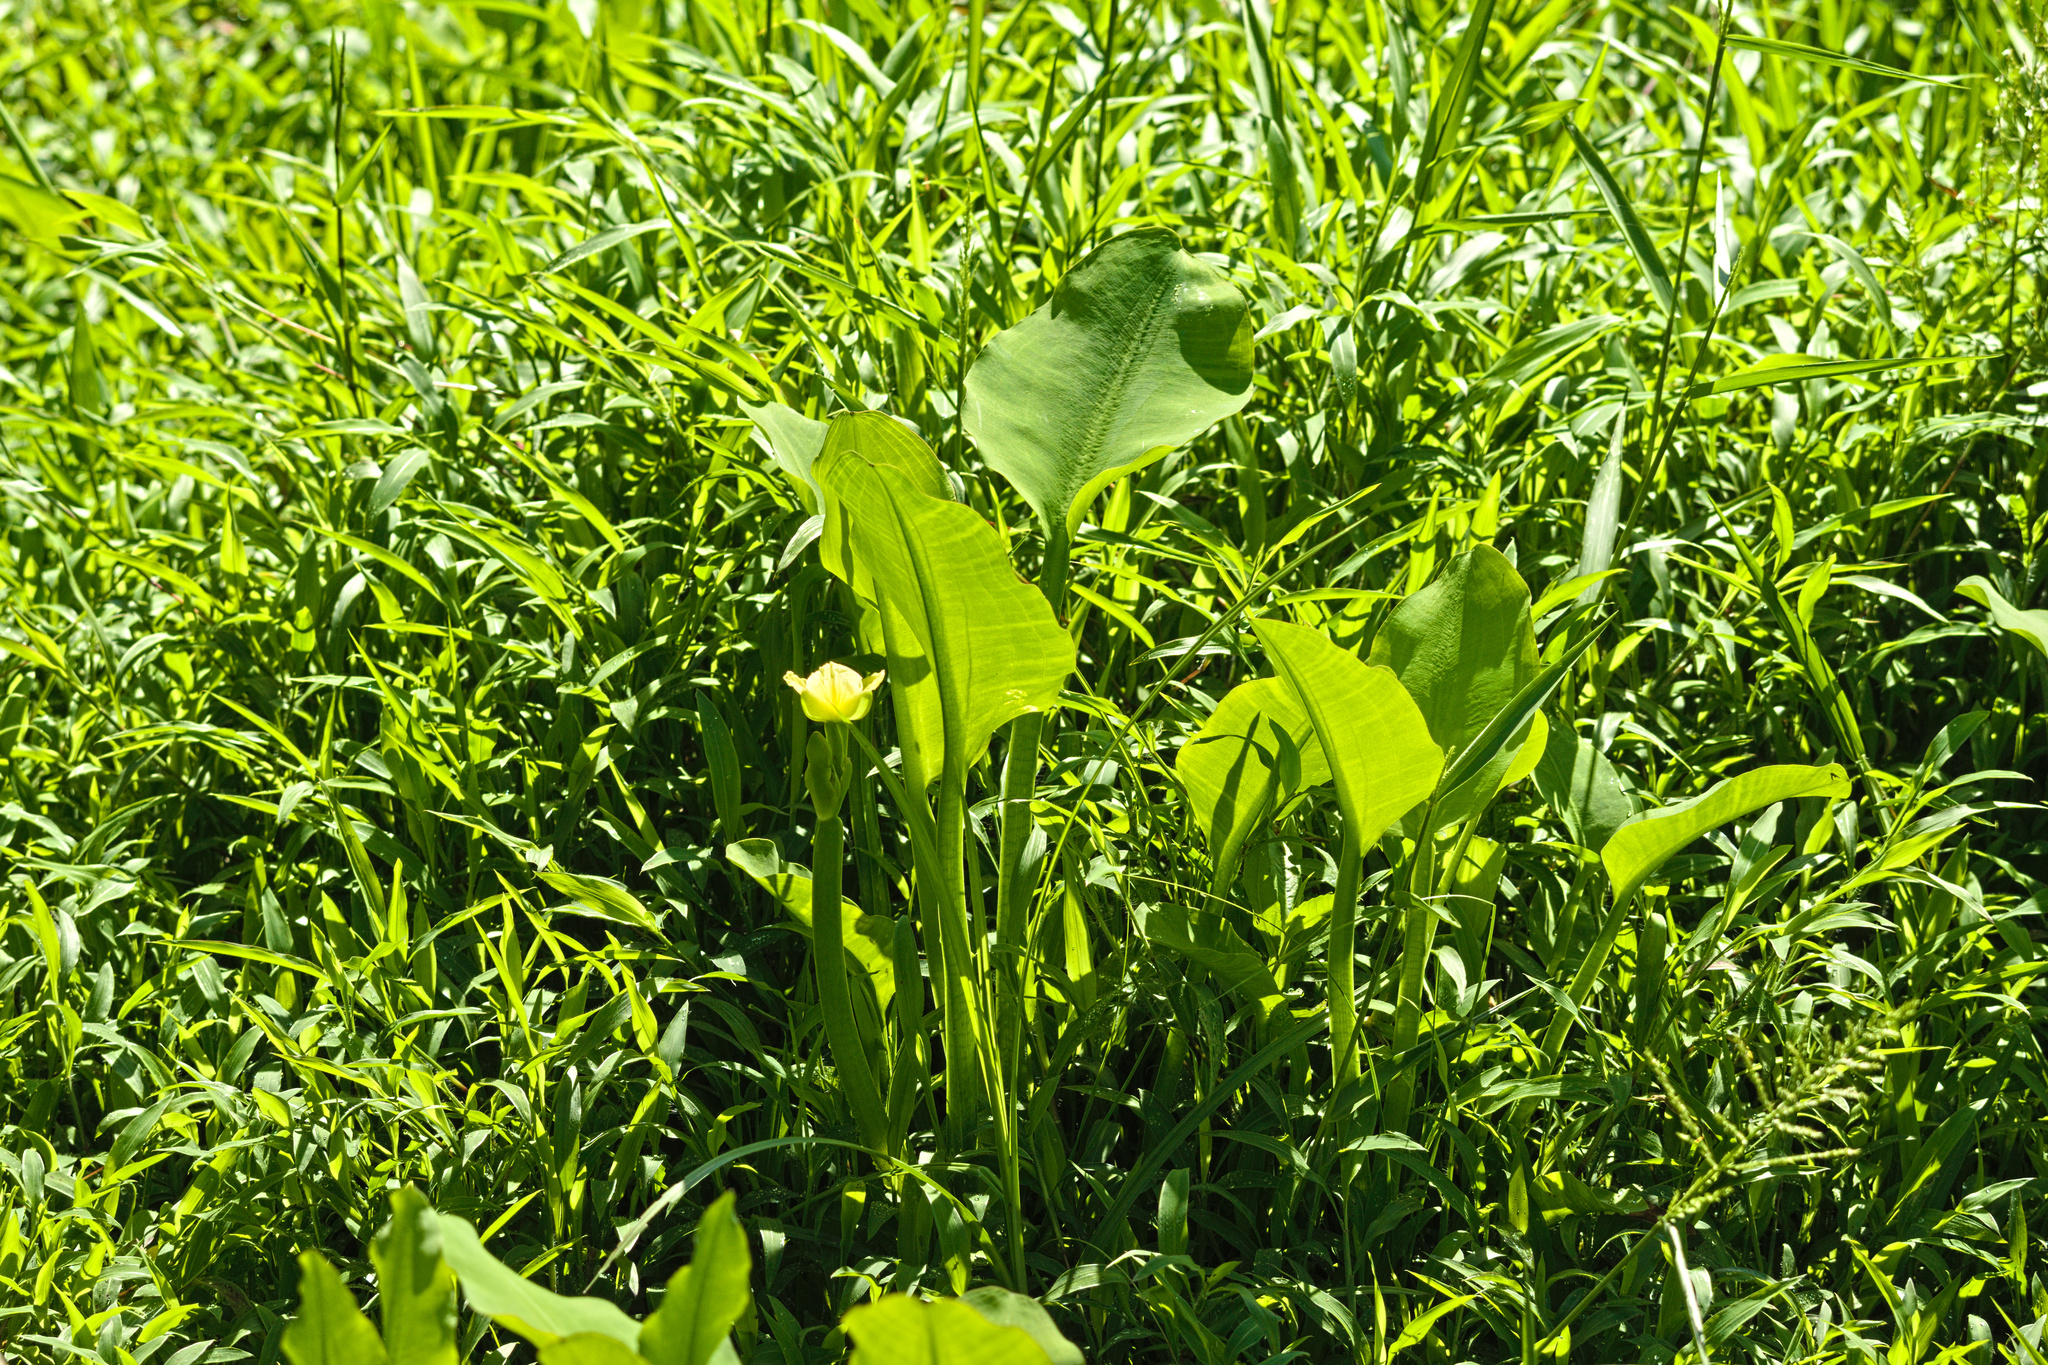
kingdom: Plantae
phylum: Tracheophyta
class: Liliopsida
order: Alismatales
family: Alismataceae
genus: Limnocharis
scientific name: Limnocharis flava
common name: Sawah-flower-rush
